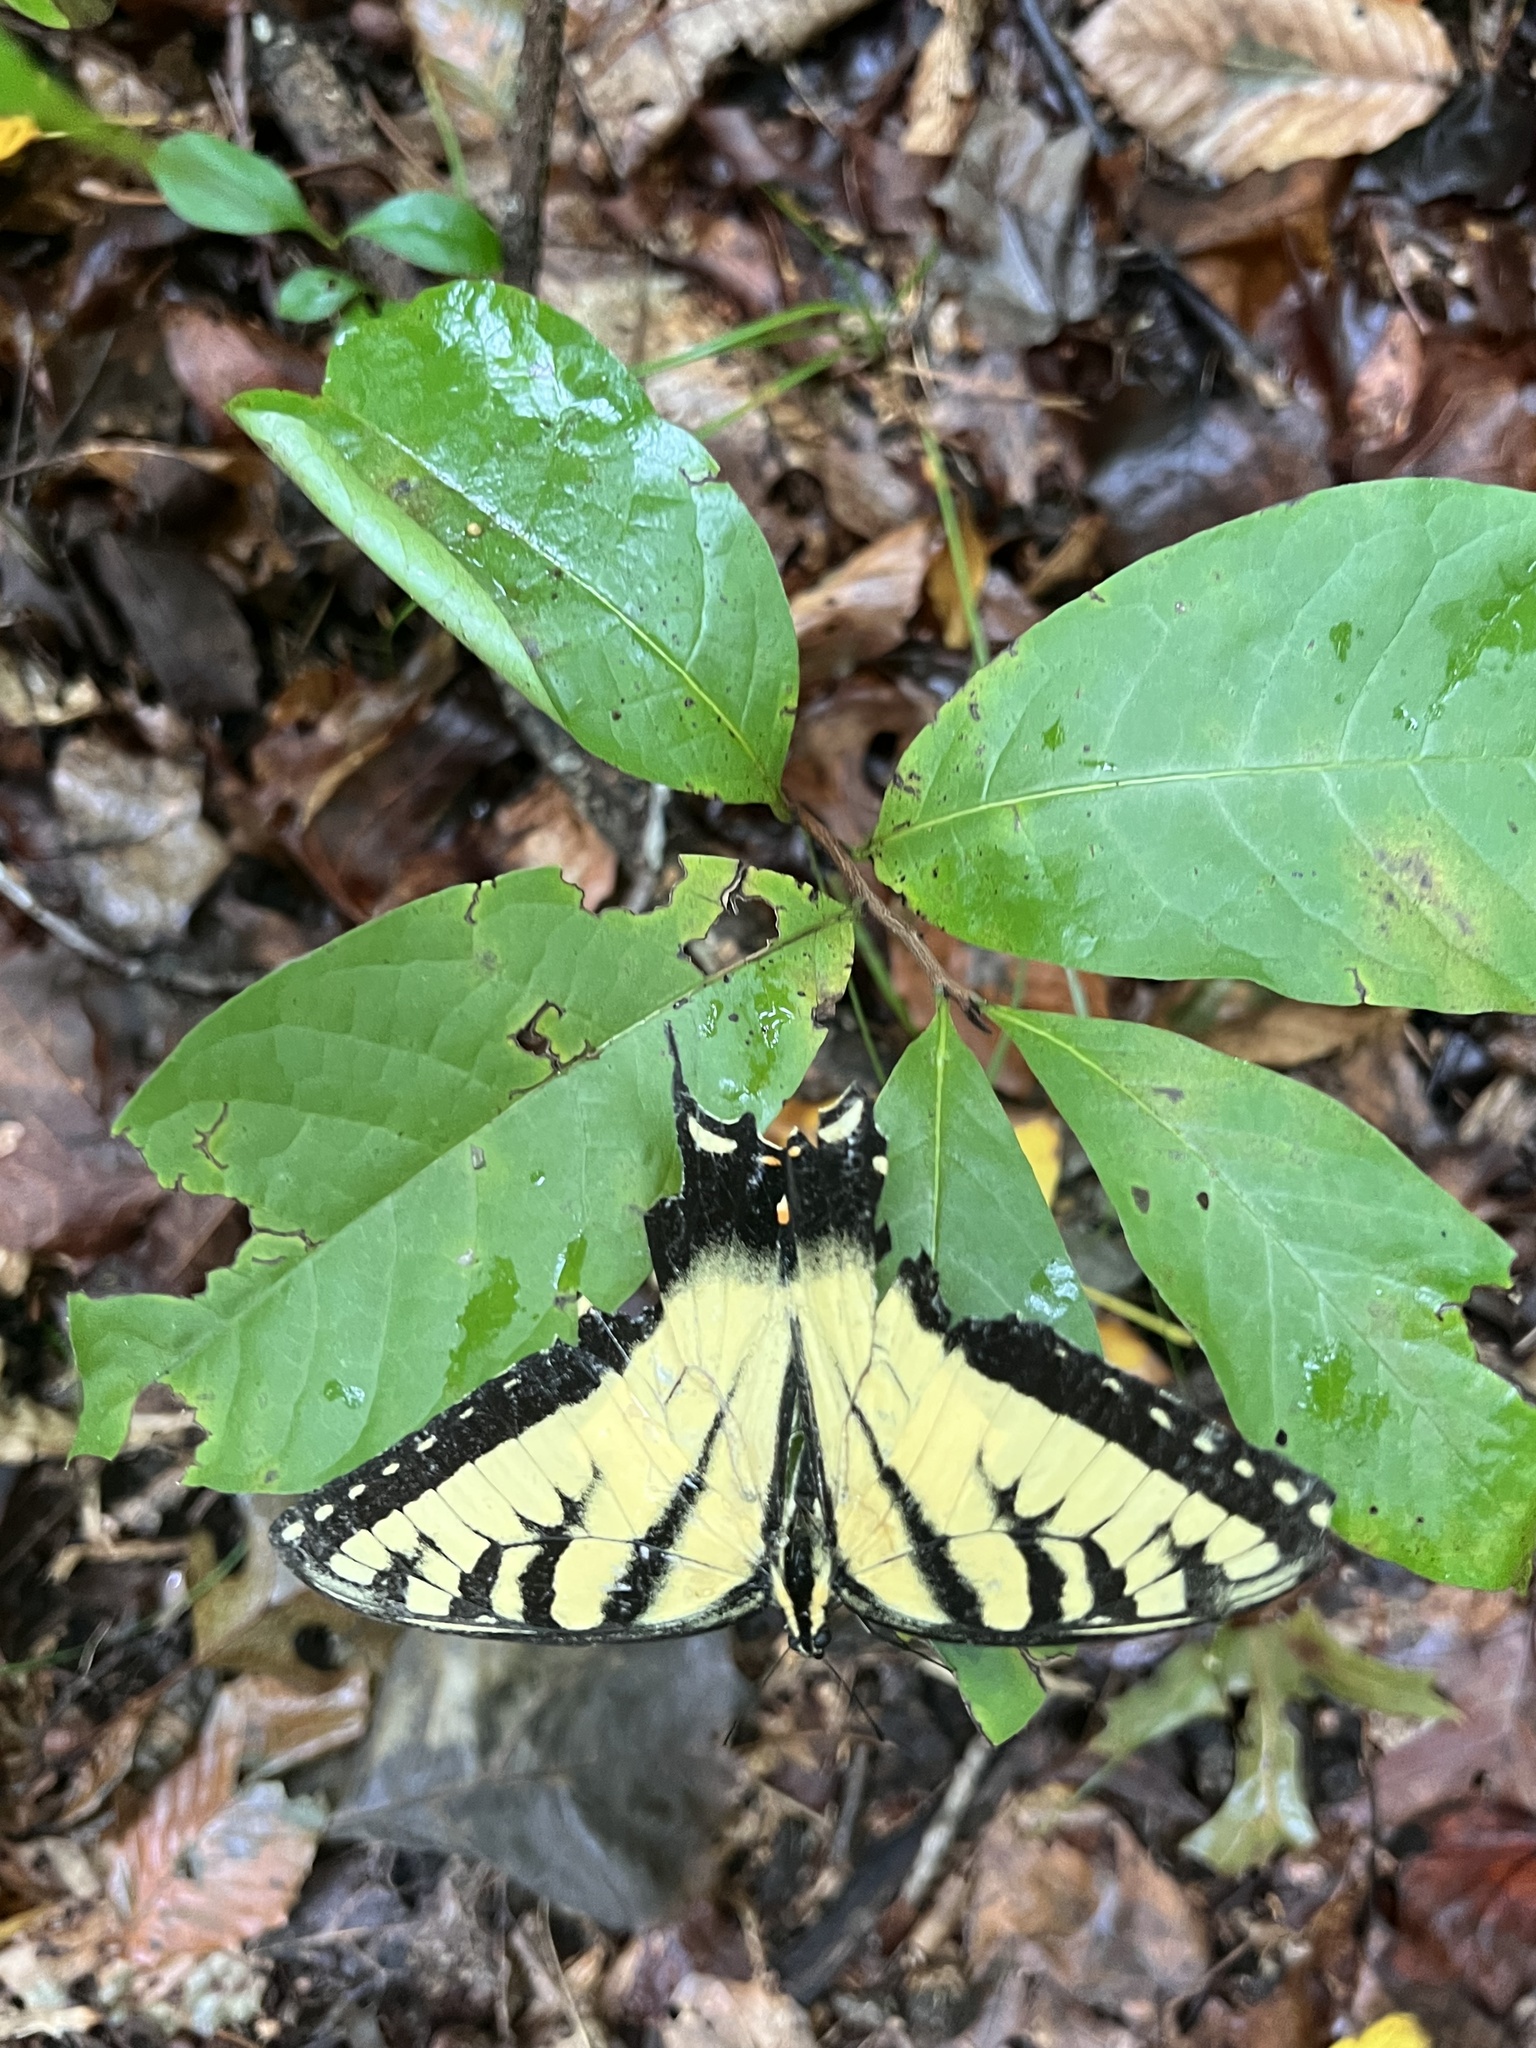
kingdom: Animalia
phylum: Arthropoda
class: Insecta
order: Lepidoptera
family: Papilionidae
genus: Papilio
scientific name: Papilio glaucus
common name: Tiger swallowtail
